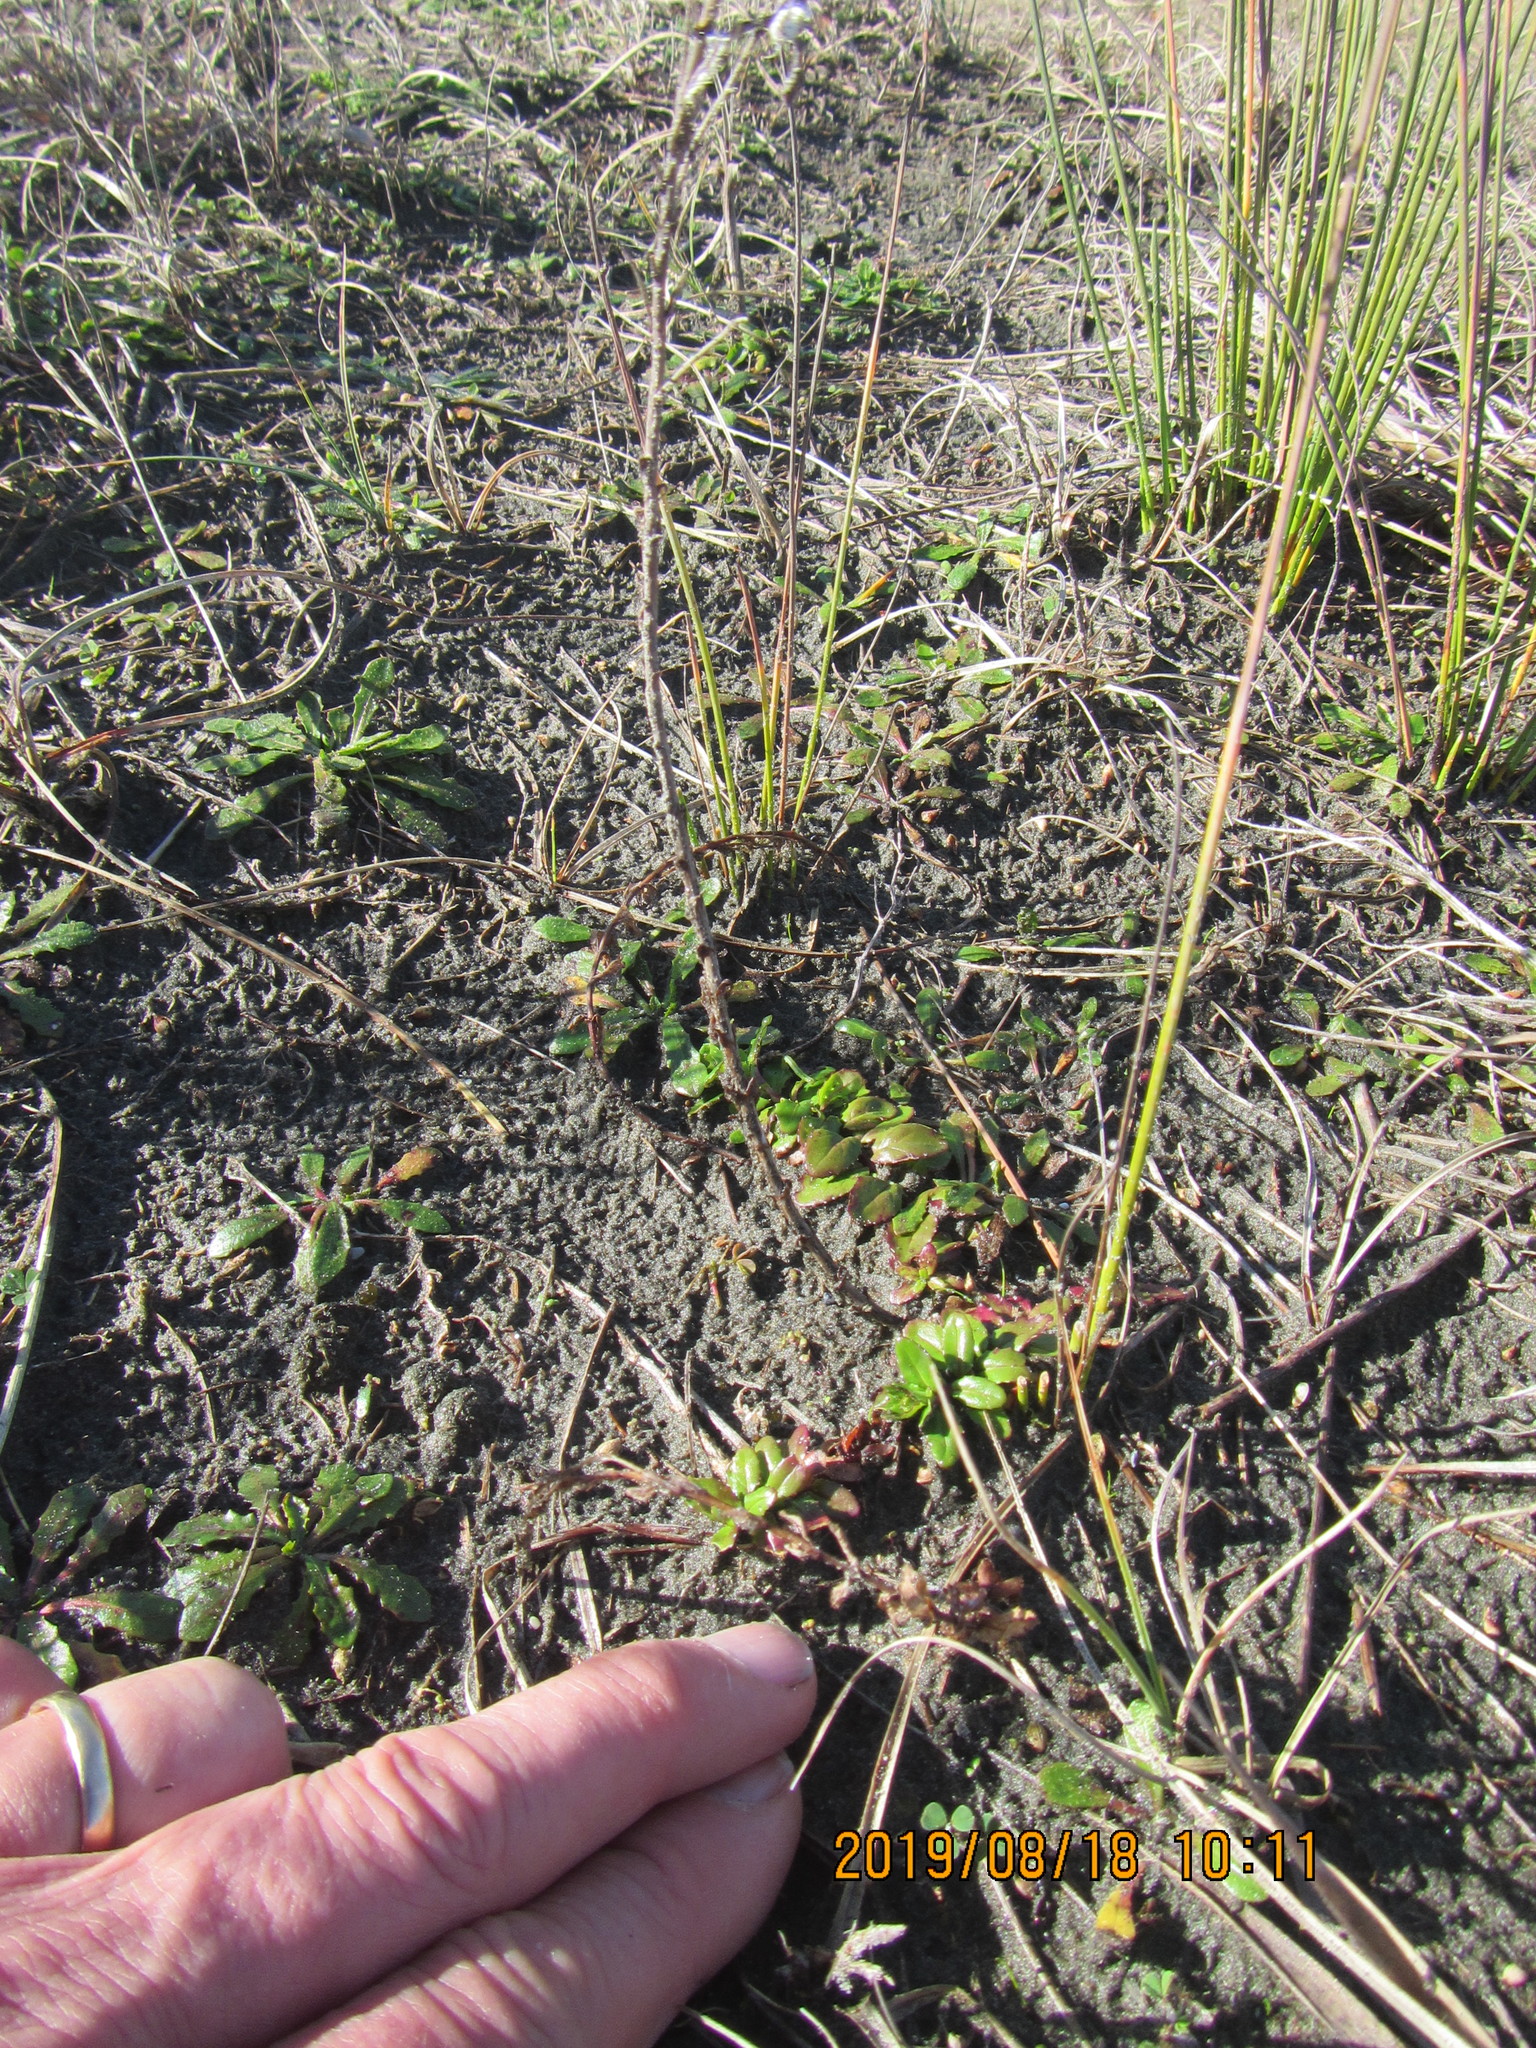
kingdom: Plantae
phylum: Tracheophyta
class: Magnoliopsida
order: Myrtales
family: Onagraceae
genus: Epilobium
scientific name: Epilobium billardiereanum
